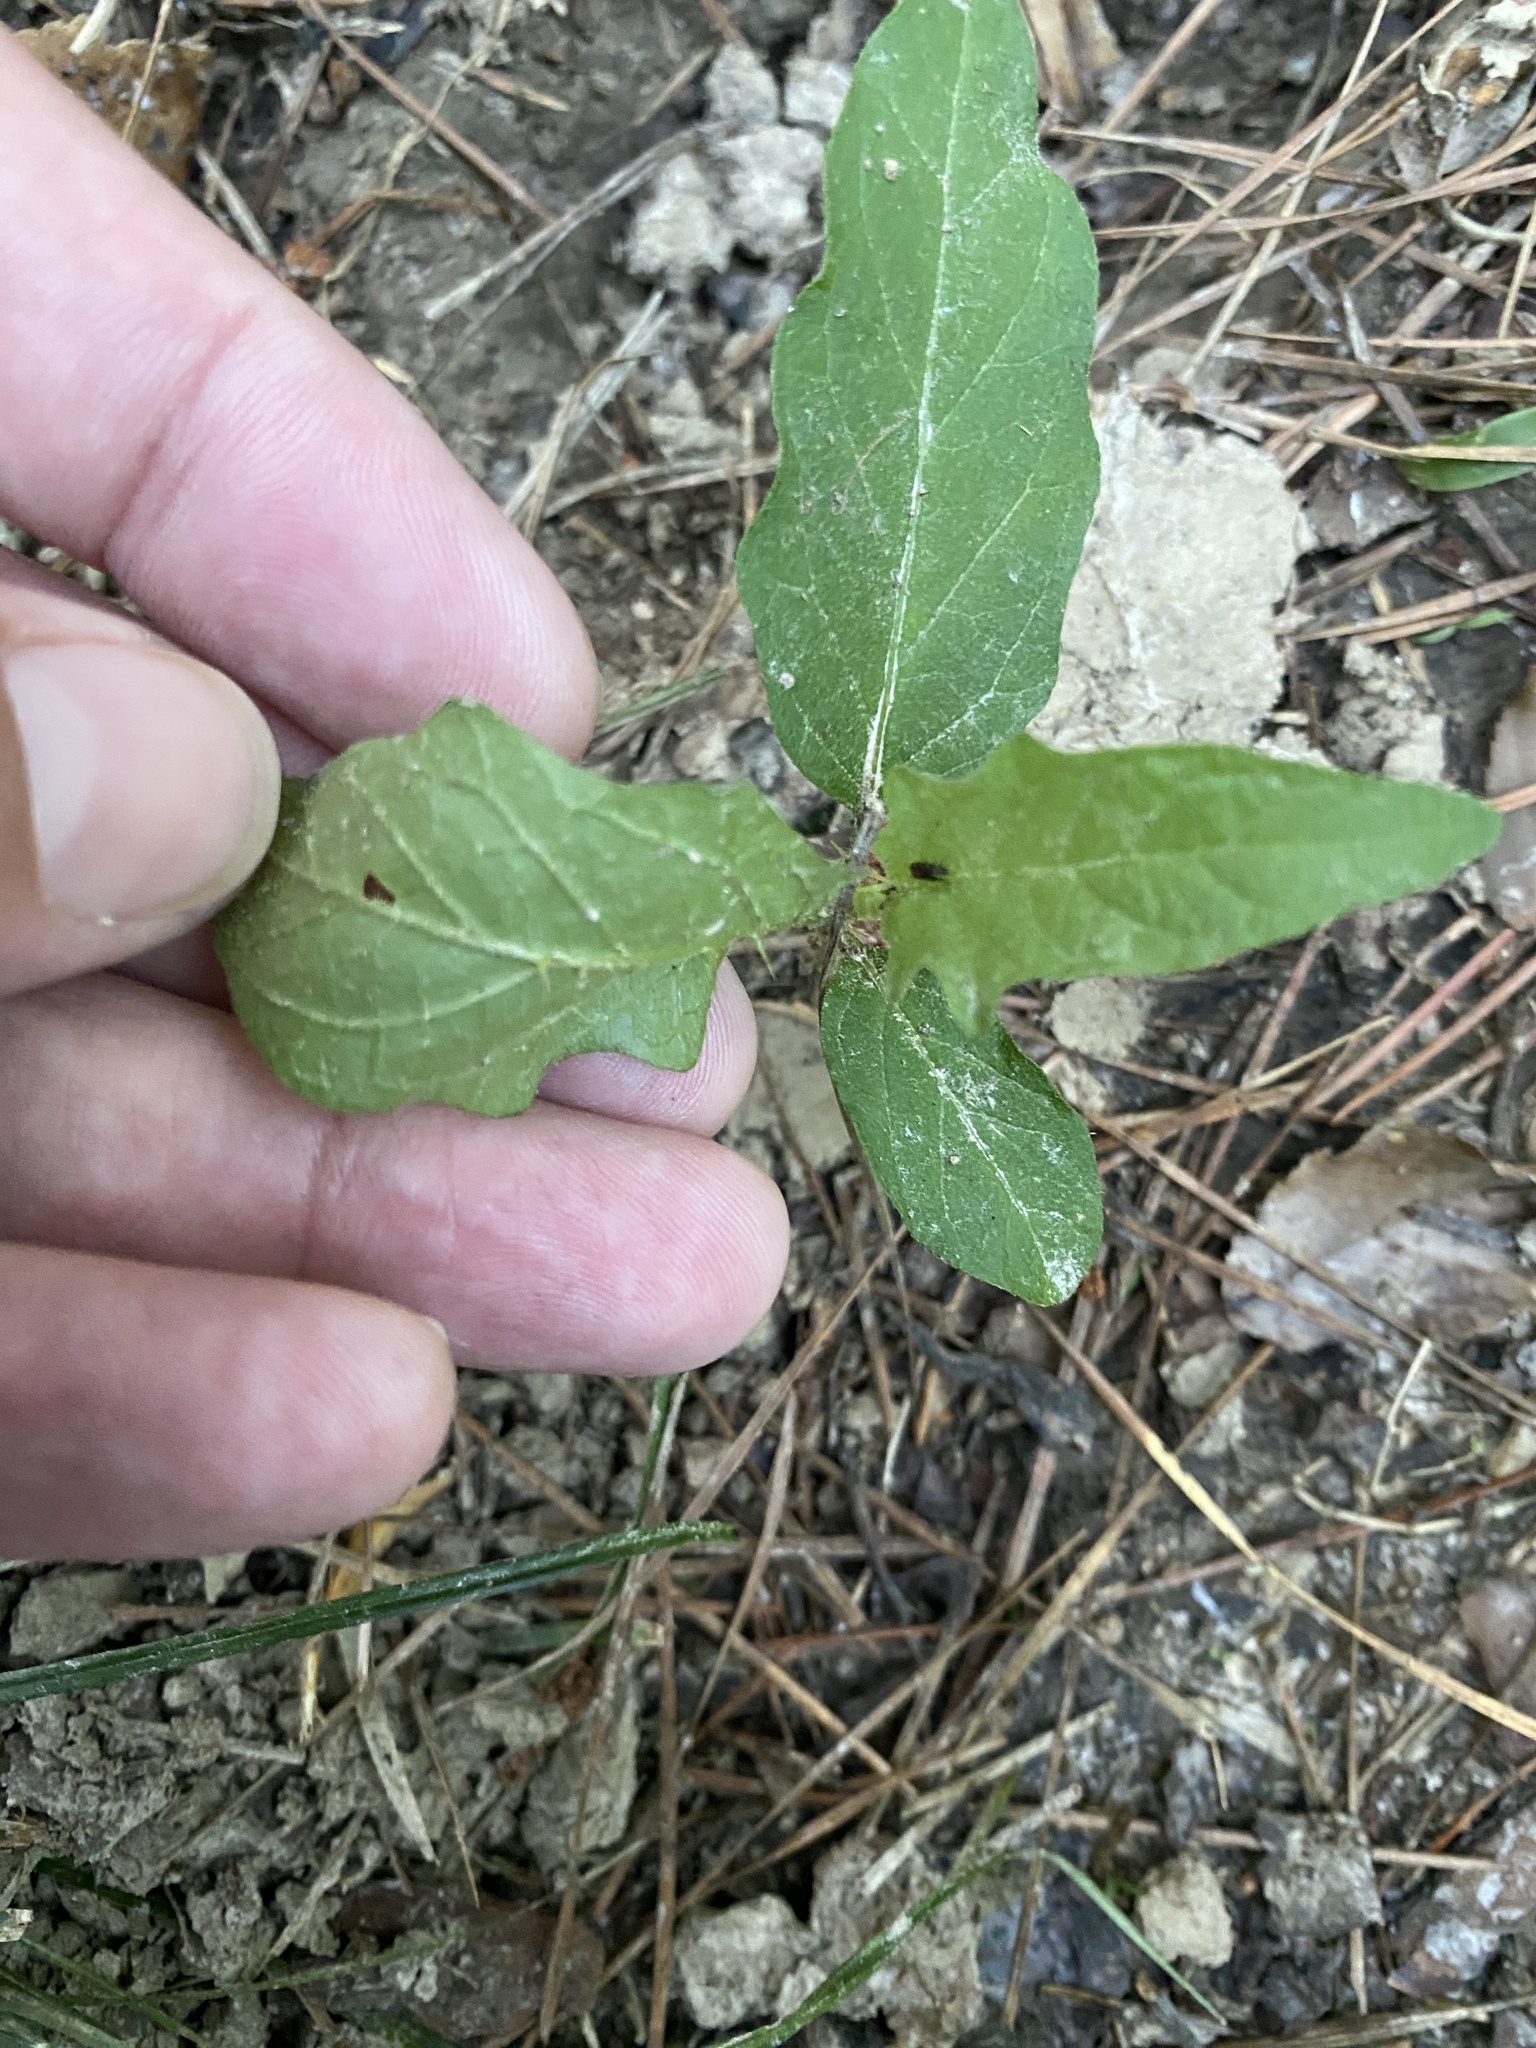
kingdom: Plantae
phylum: Tracheophyta
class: Magnoliopsida
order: Solanales
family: Solanaceae
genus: Solanum
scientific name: Solanum carolinense
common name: Horse-nettle
